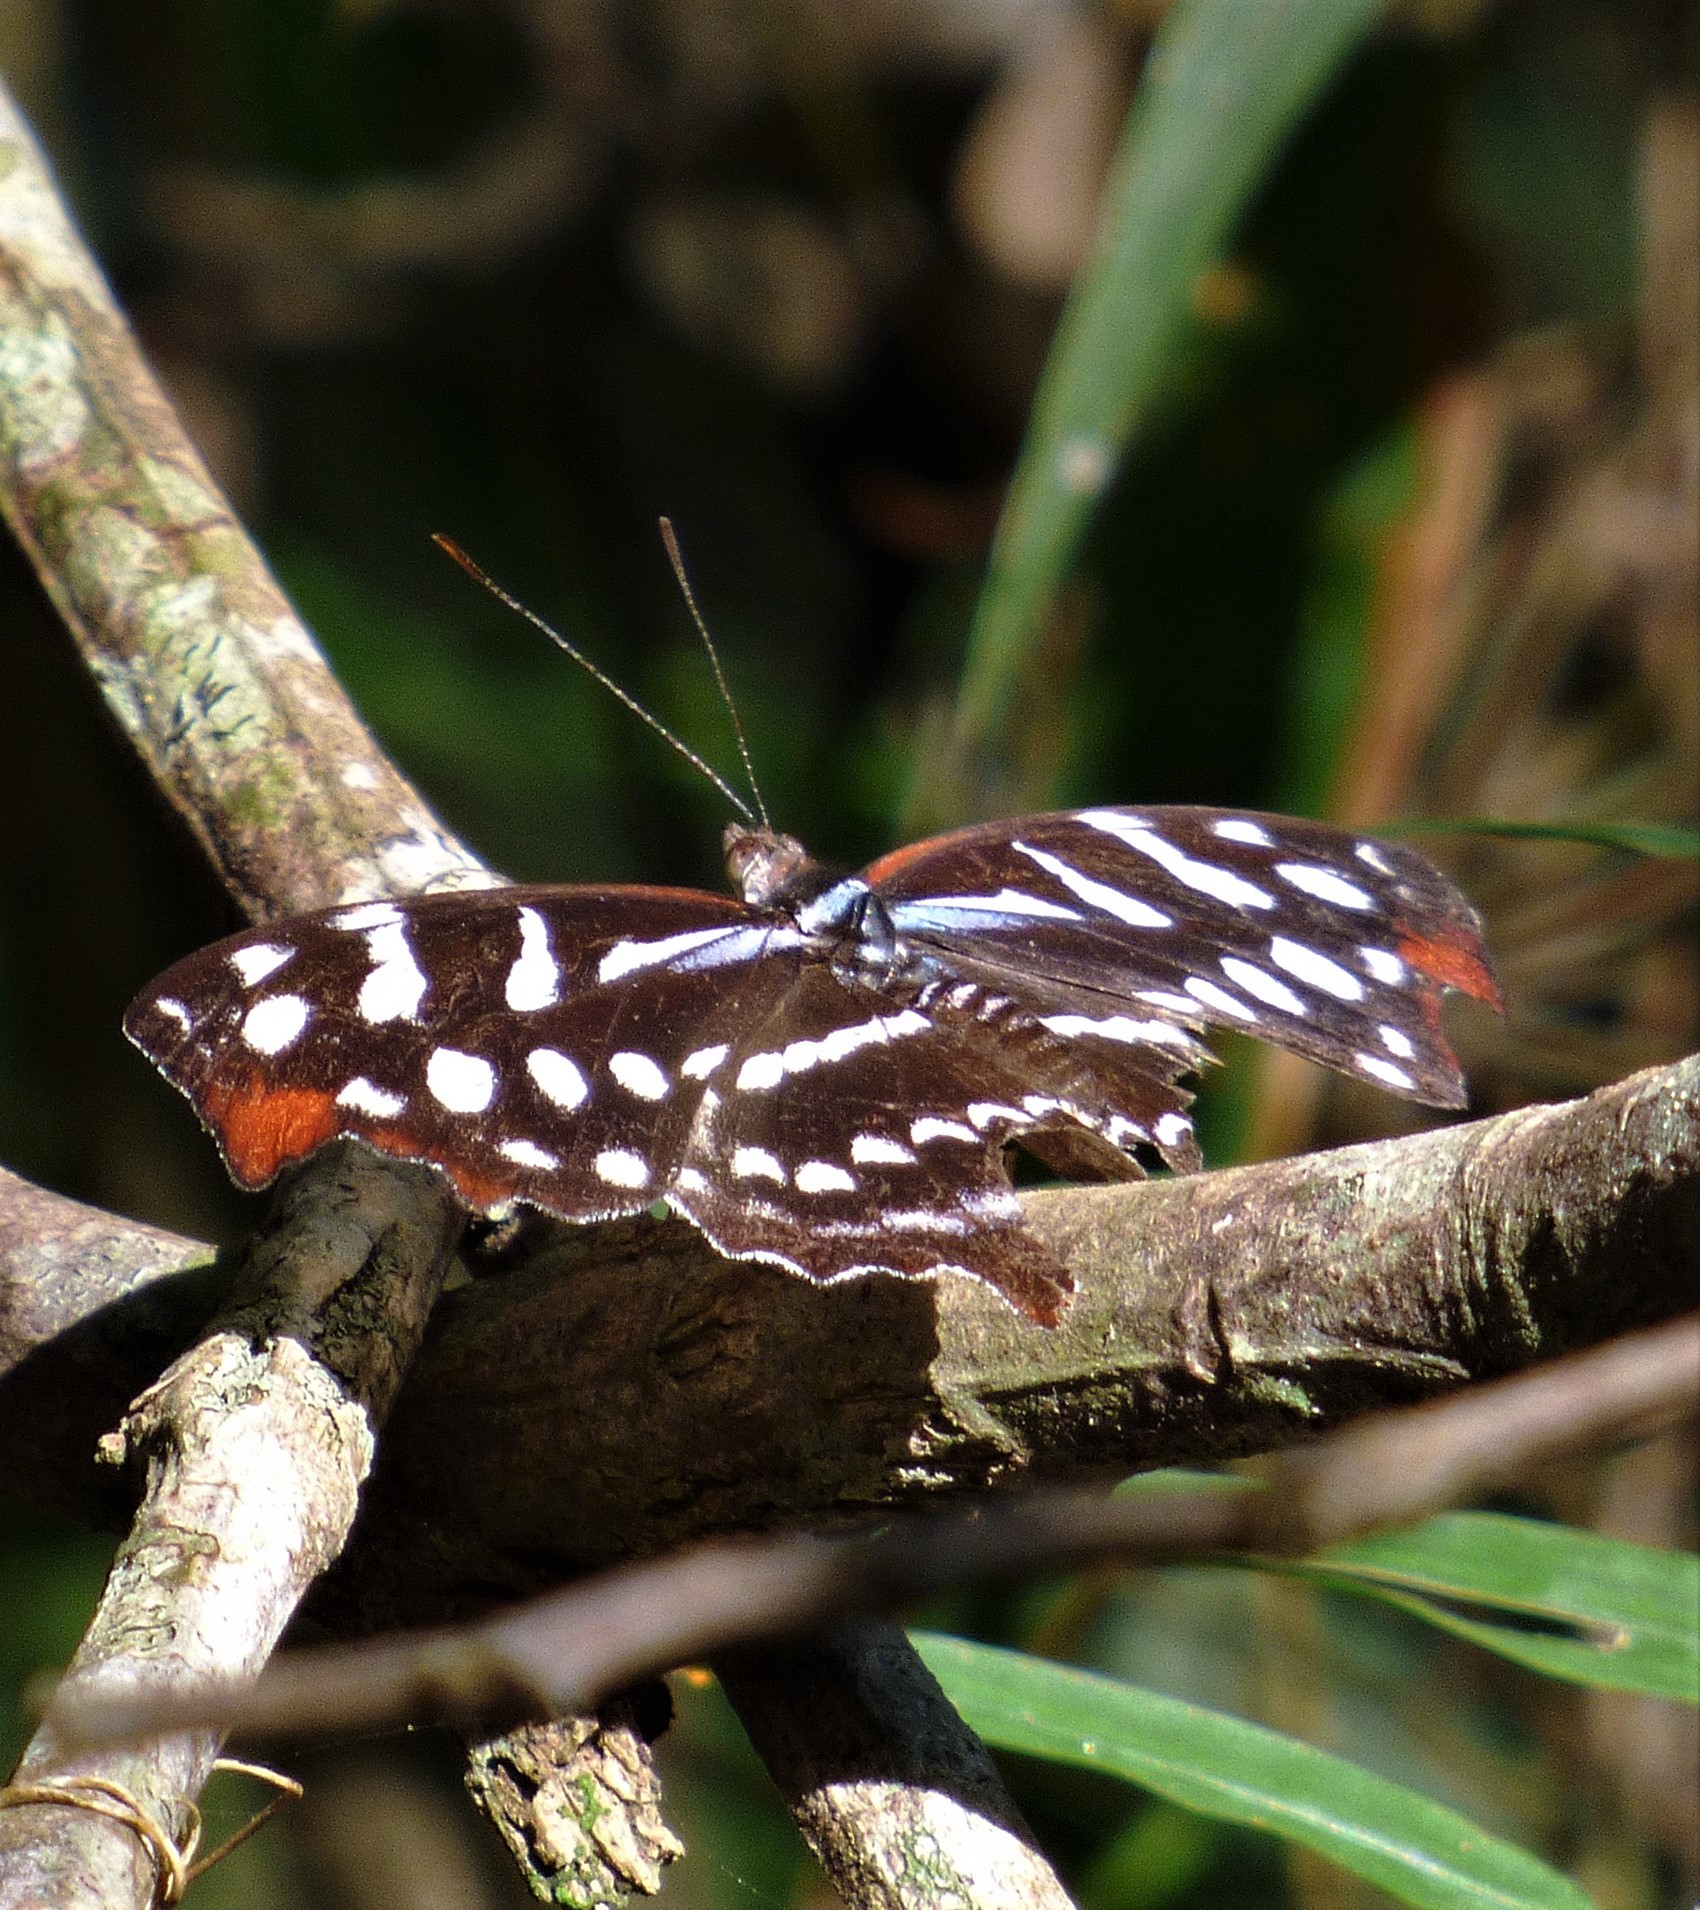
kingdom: Animalia
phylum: Arthropoda
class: Insecta
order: Lepidoptera
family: Nymphalidae
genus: Myscelia
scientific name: Myscelia orsis
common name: Orsis bluewing
